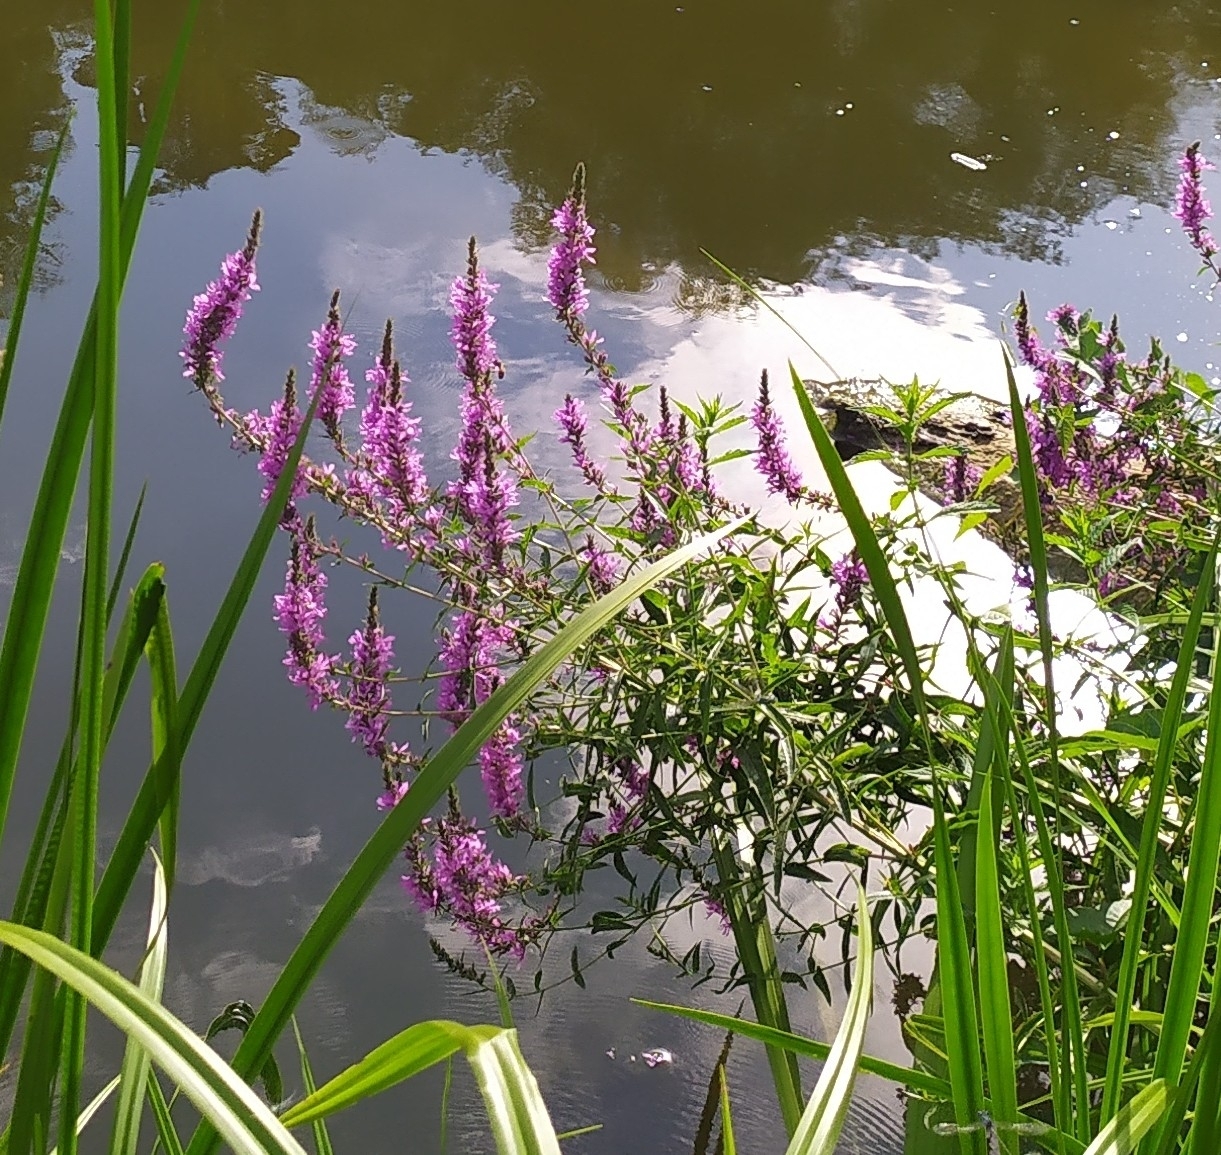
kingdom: Plantae
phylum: Tracheophyta
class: Magnoliopsida
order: Myrtales
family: Lythraceae
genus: Lythrum
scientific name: Lythrum salicaria
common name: Purple loosestrife
